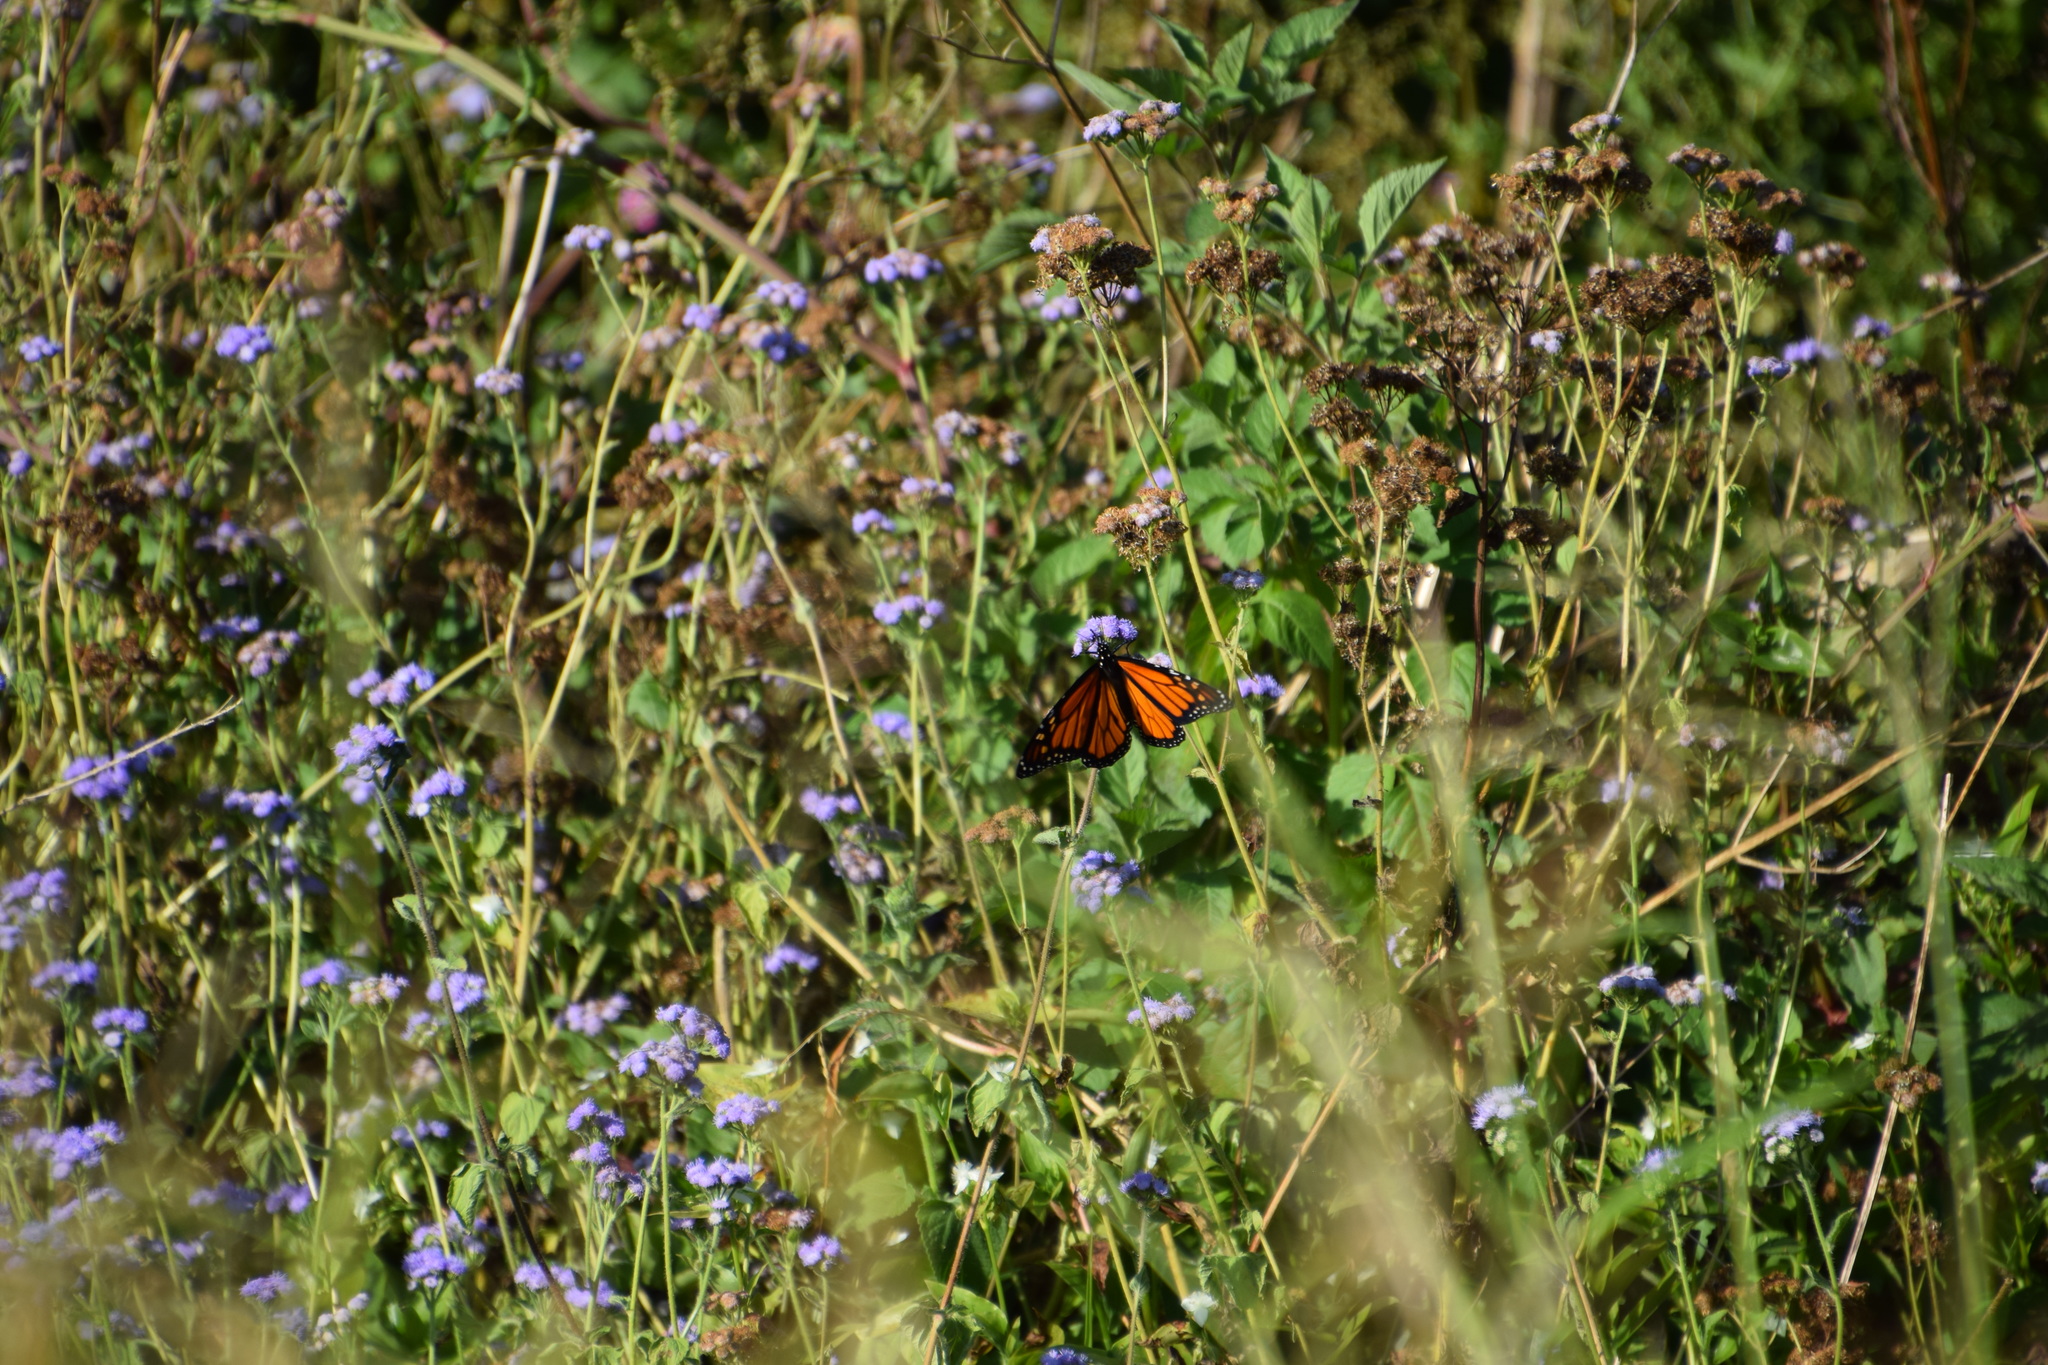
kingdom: Animalia
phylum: Arthropoda
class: Insecta
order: Lepidoptera
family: Nymphalidae
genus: Danaus
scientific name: Danaus plexippus
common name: Monarch
